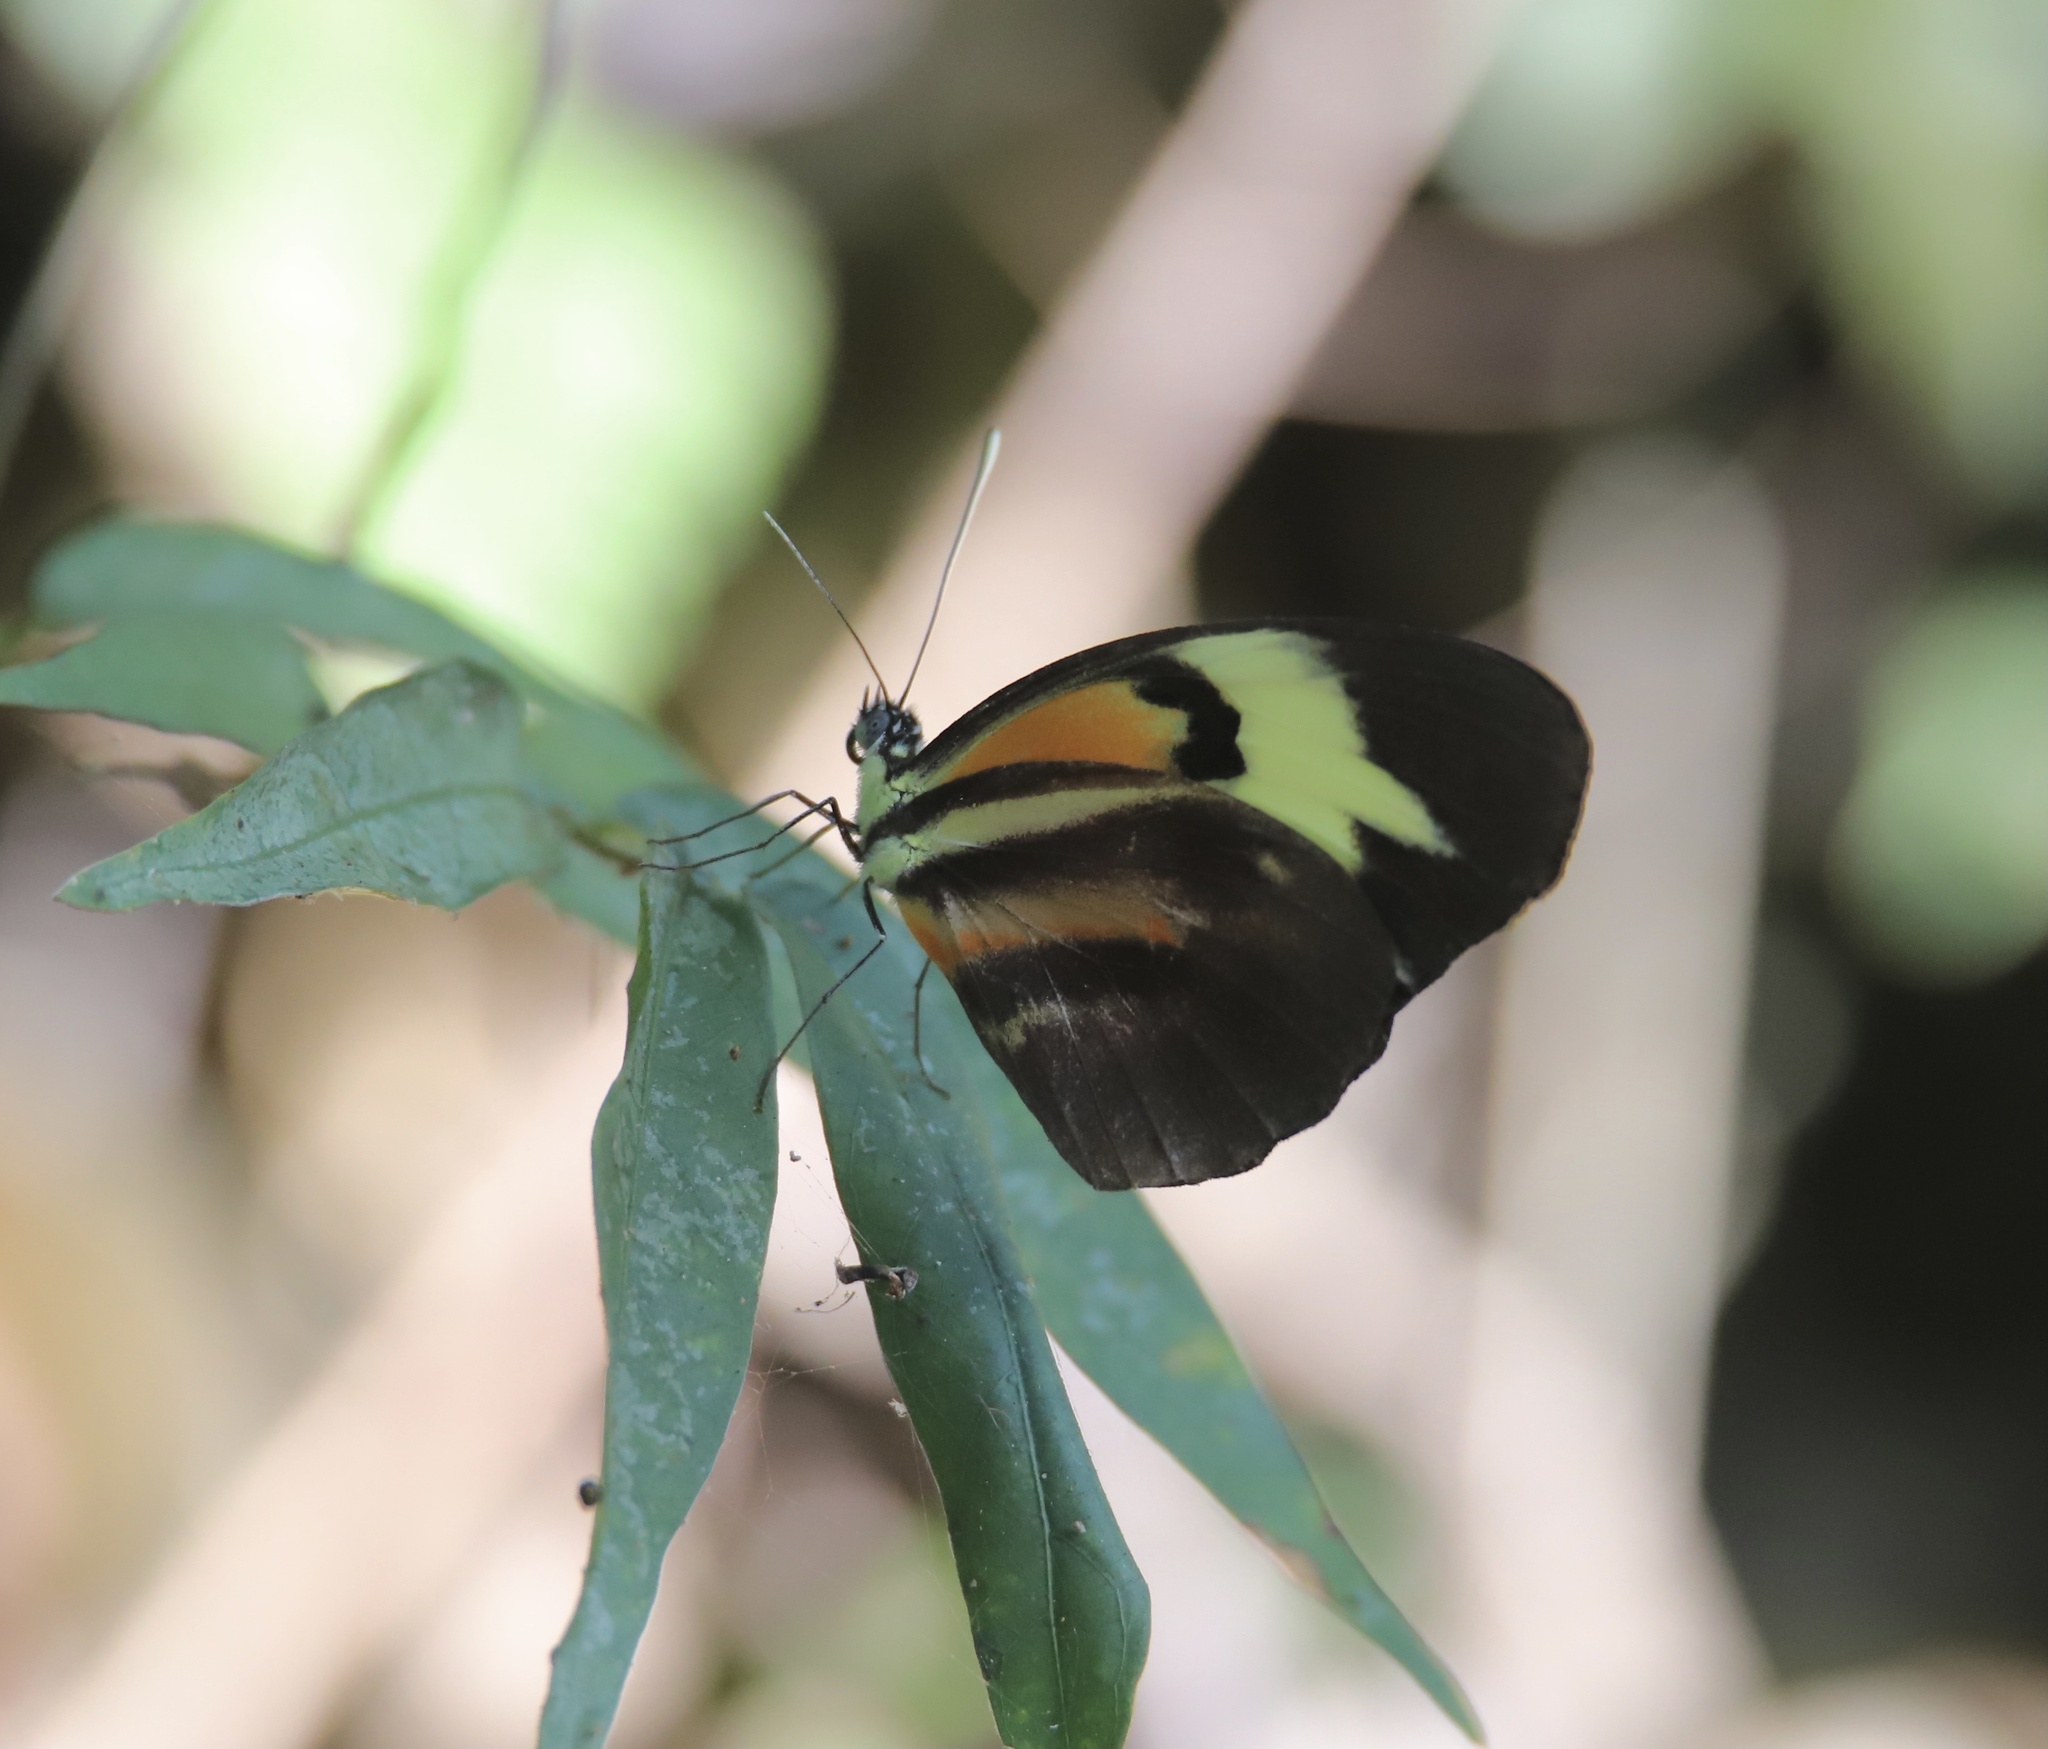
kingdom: Animalia
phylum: Arthropoda
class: Insecta
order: Lepidoptera
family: Pieridae
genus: Perrhybris
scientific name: Perrhybris pamela
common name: Chiapas white
